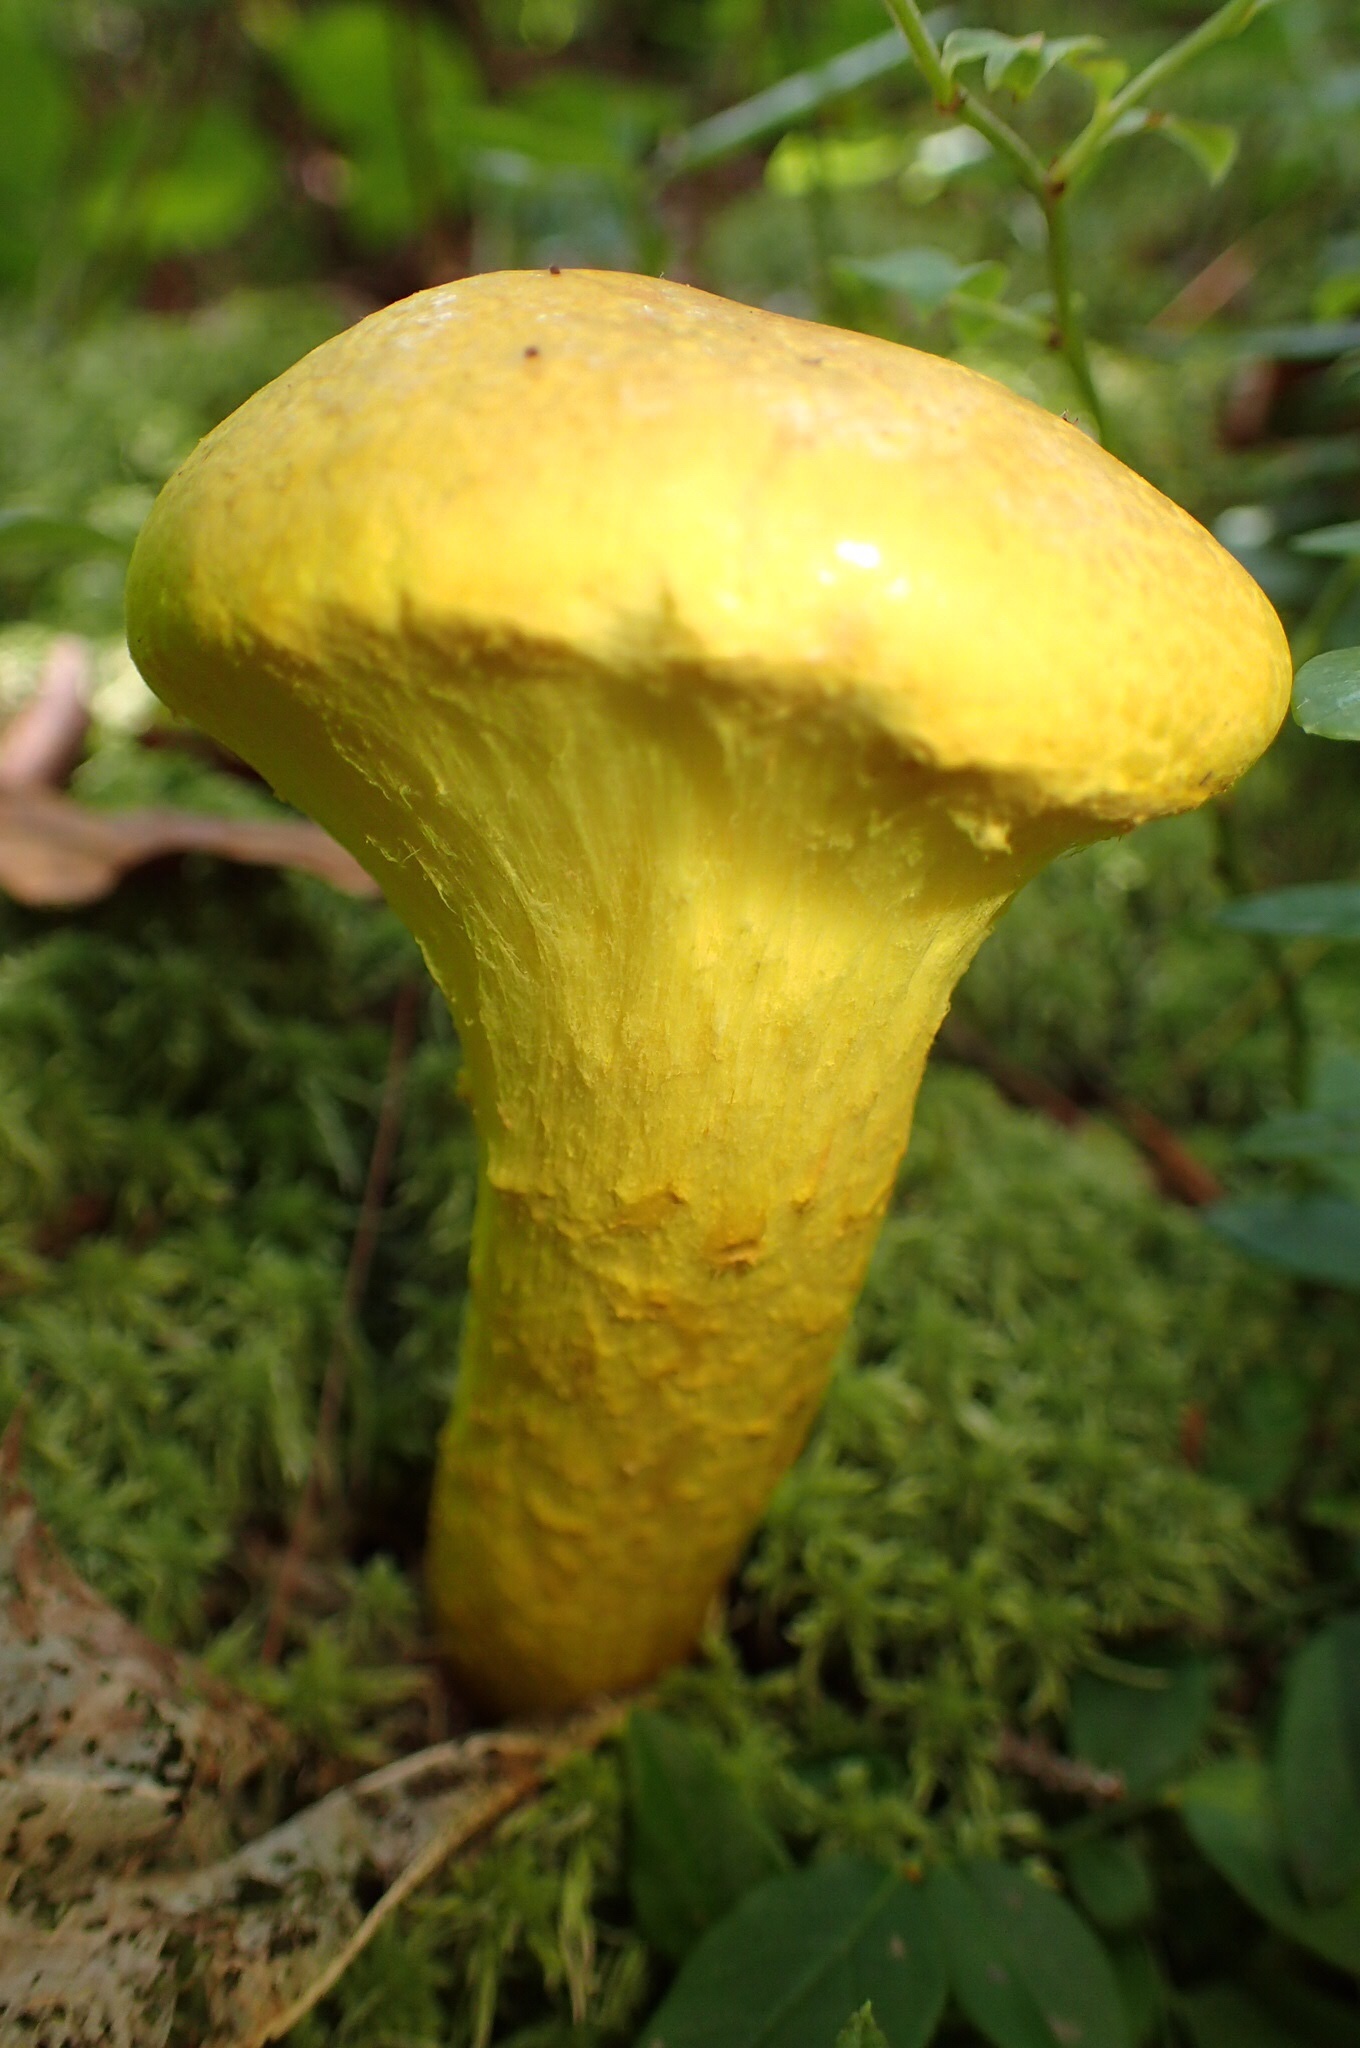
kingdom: Fungi
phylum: Basidiomycota
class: Agaricomycetes
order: Boletales
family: Boletaceae
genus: Pulveroboletus
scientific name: Pulveroboletus ravenelii
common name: Powdery sulfur bolete
